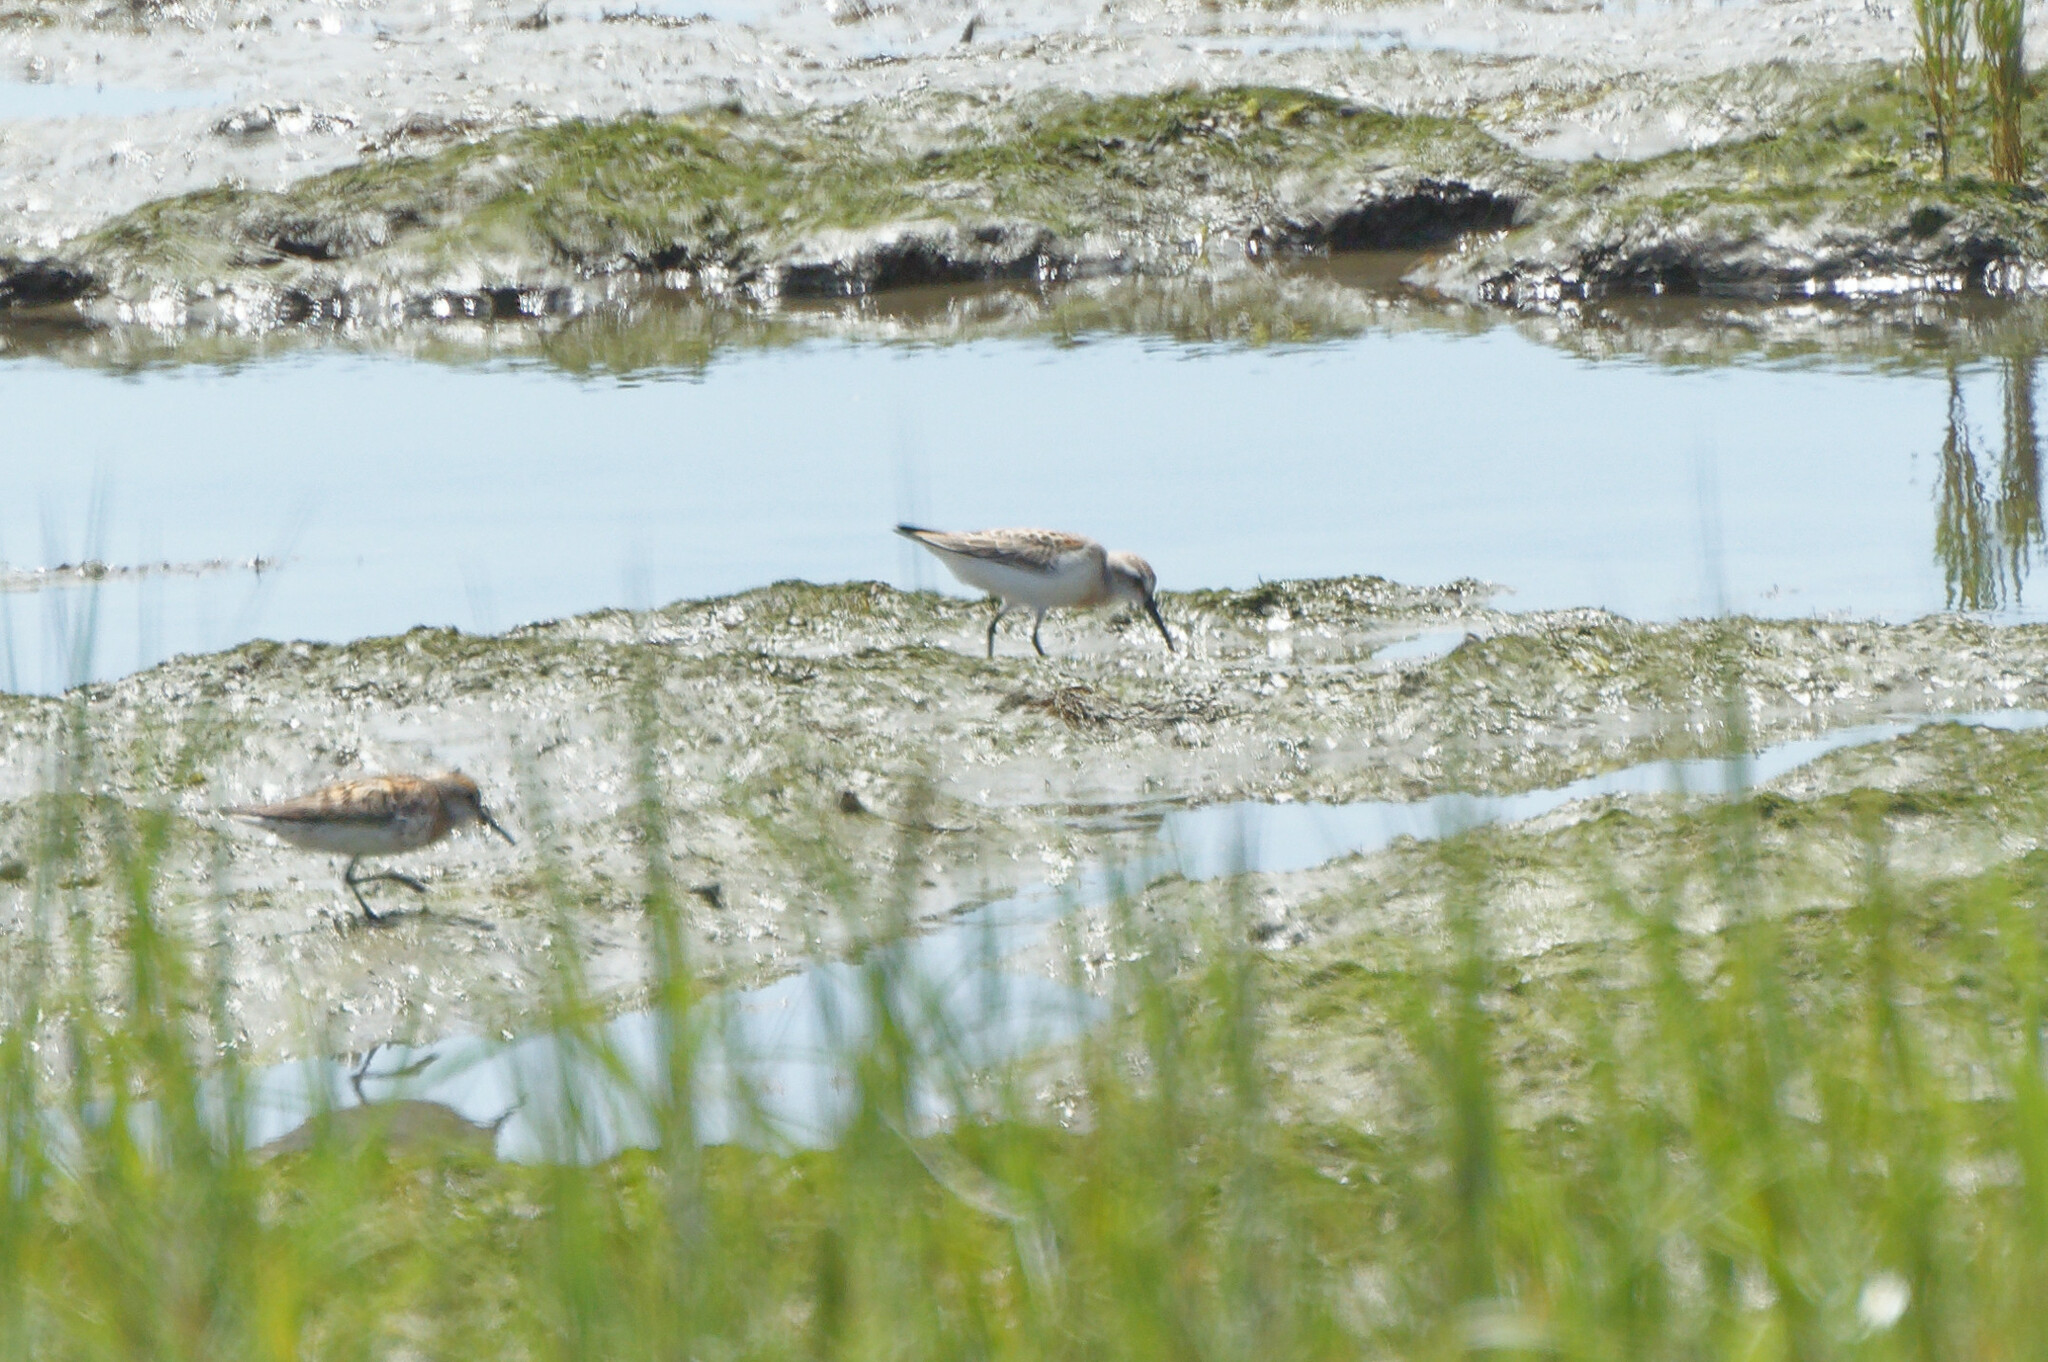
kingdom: Animalia
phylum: Chordata
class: Aves
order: Charadriiformes
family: Scolopacidae
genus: Calidris
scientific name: Calidris mauri
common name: Western sandpiper
